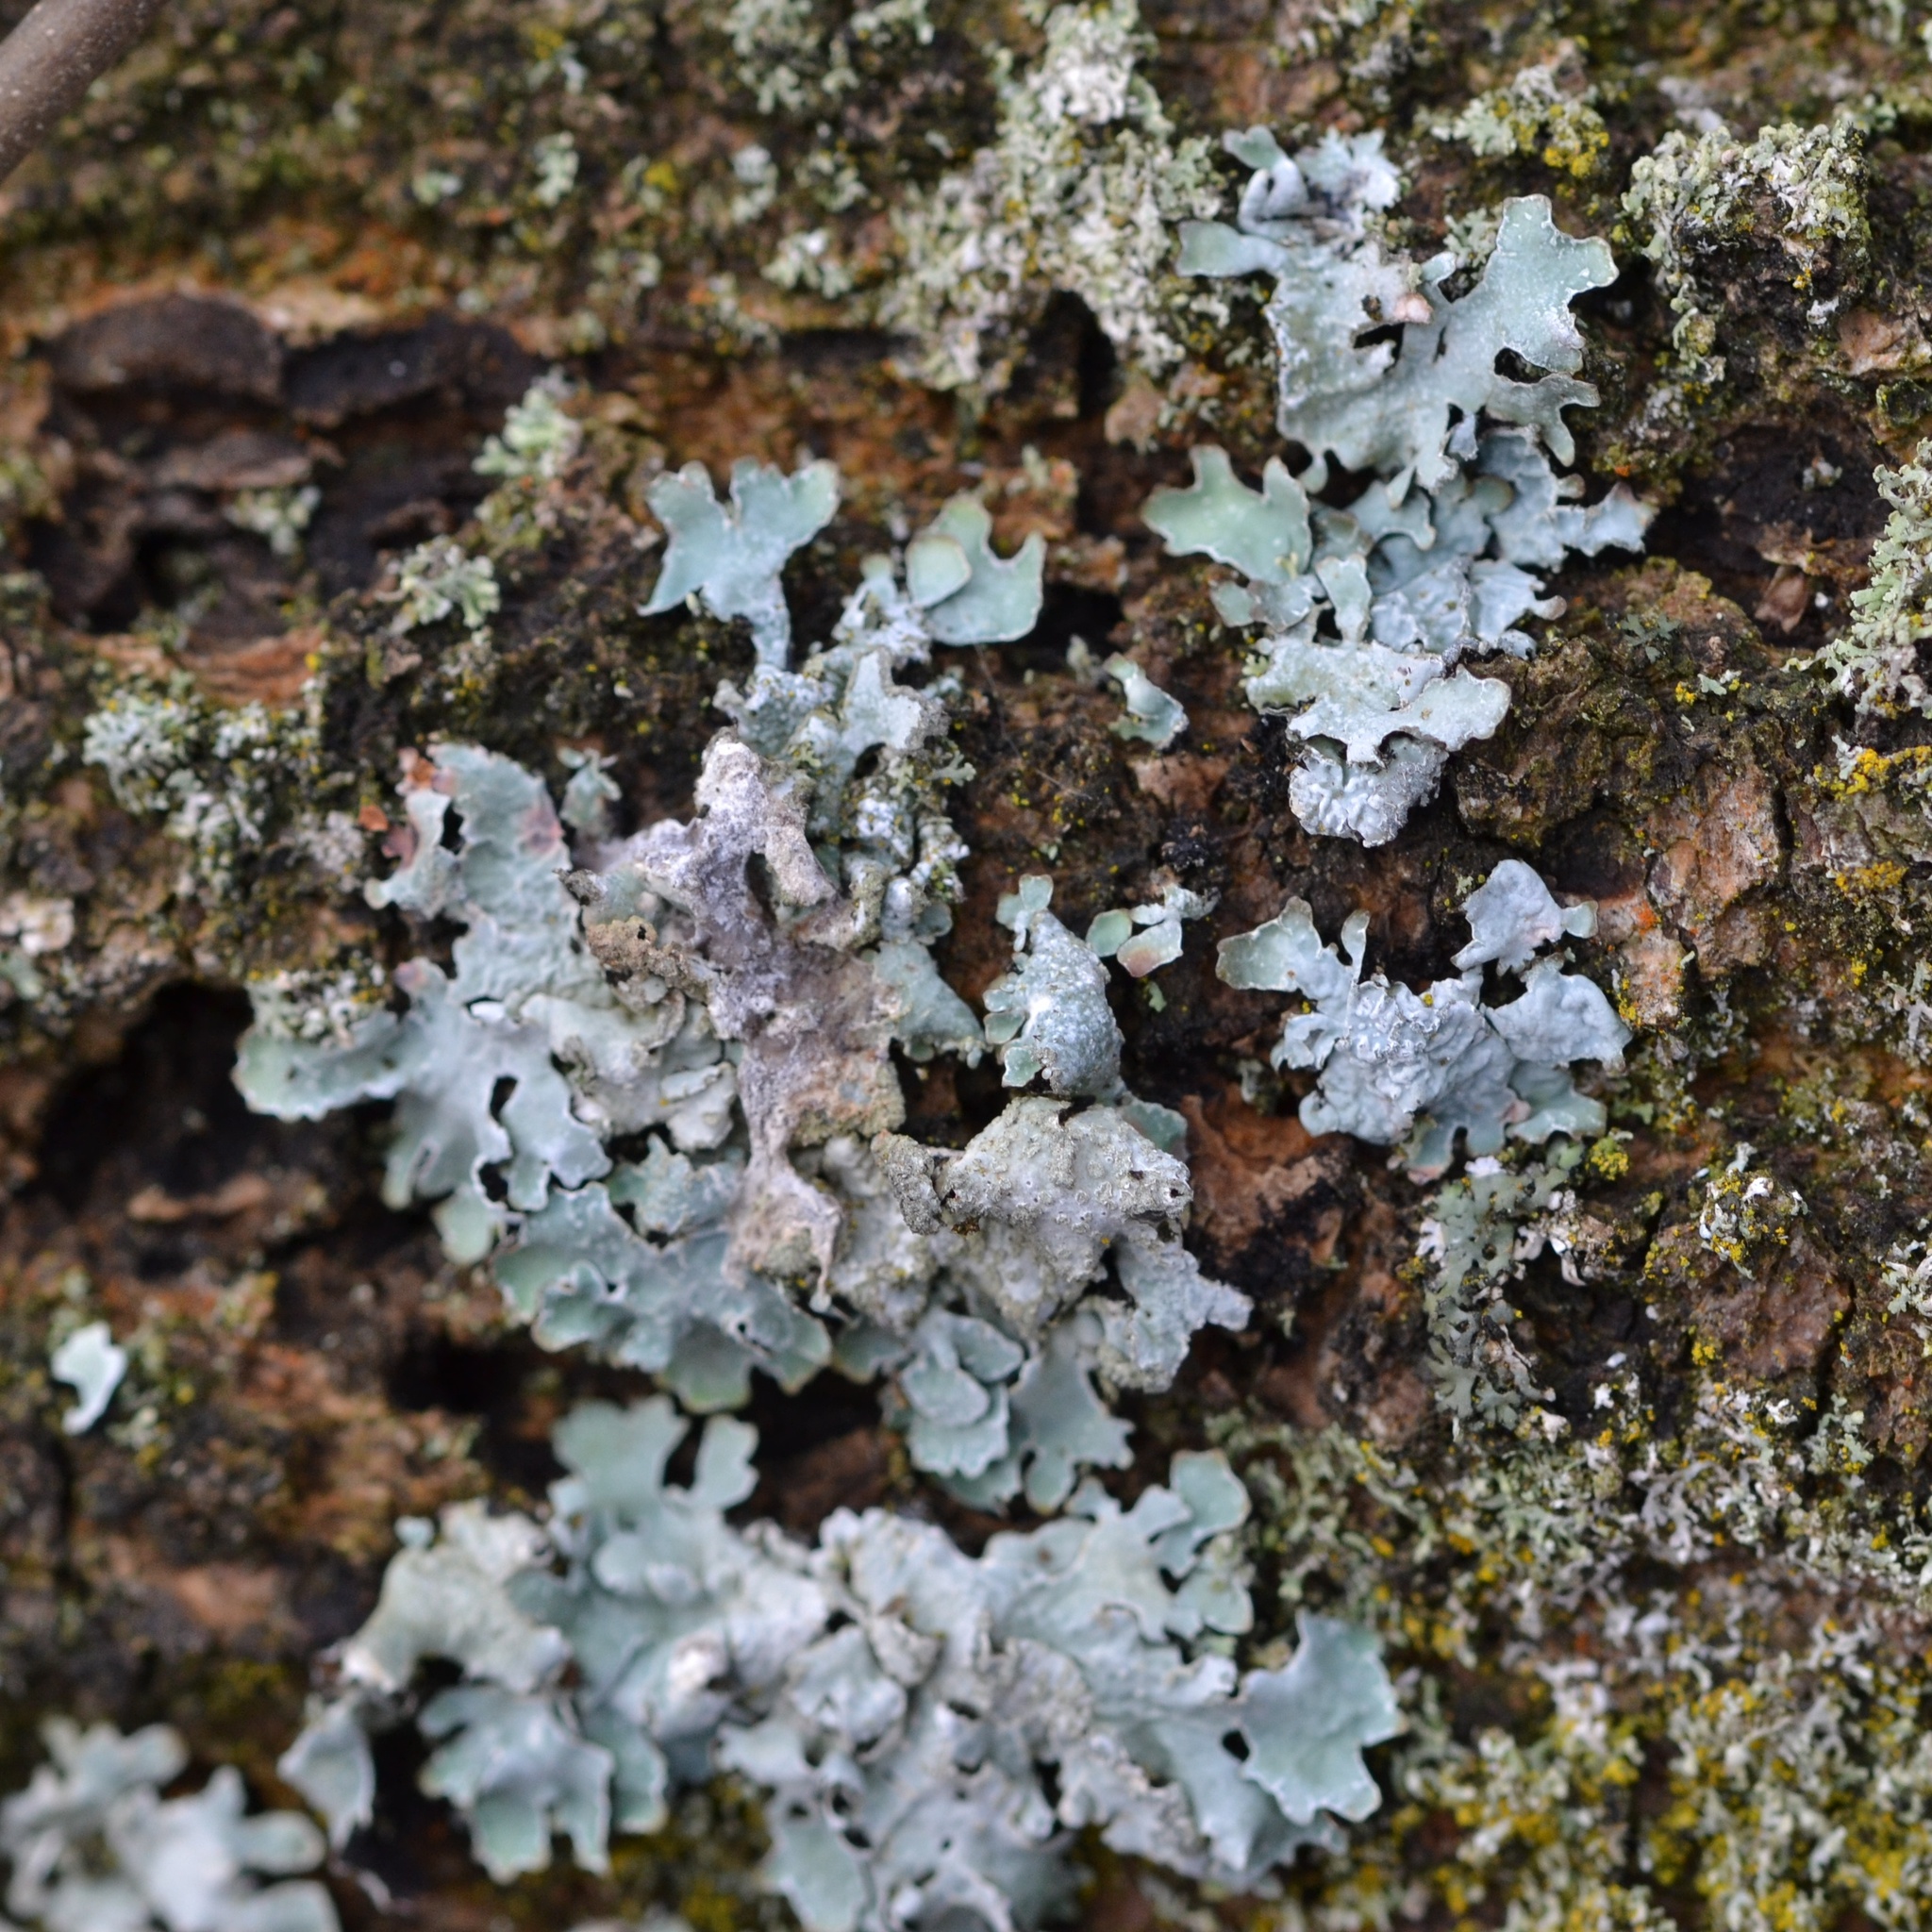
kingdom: Fungi
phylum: Ascomycota
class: Lecanoromycetes
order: Lecanorales
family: Parmeliaceae
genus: Parmelia
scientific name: Parmelia sulcata
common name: Netted shield lichen
